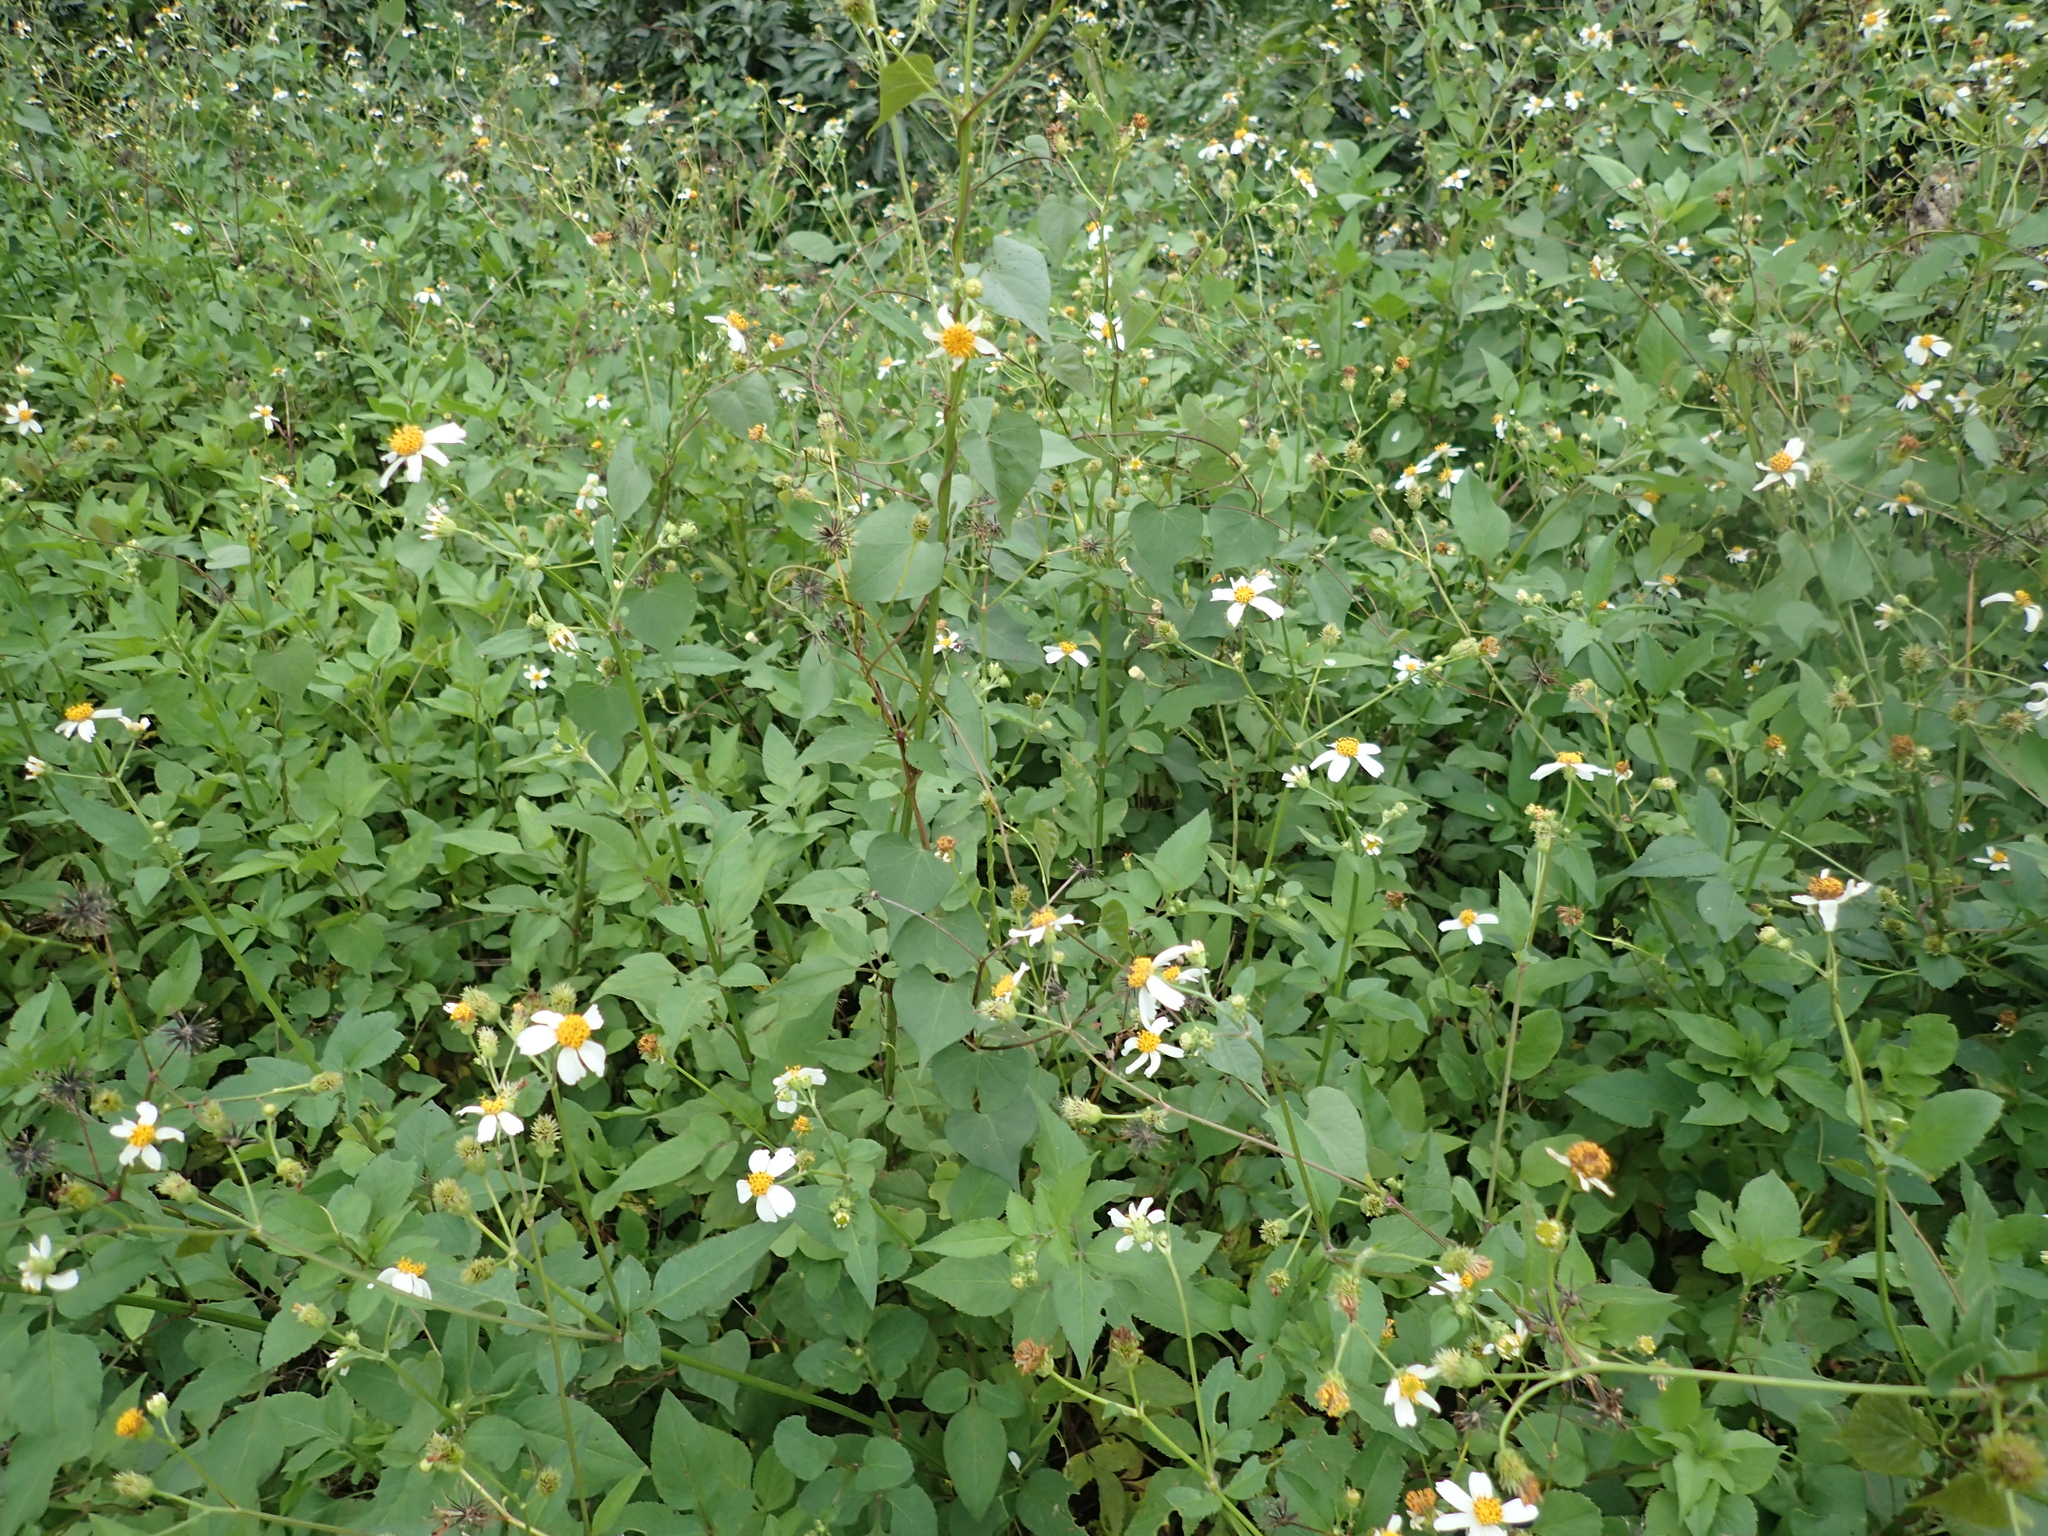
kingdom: Plantae
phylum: Tracheophyta
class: Magnoliopsida
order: Asterales
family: Asteraceae
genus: Bidens
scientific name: Bidens alba
